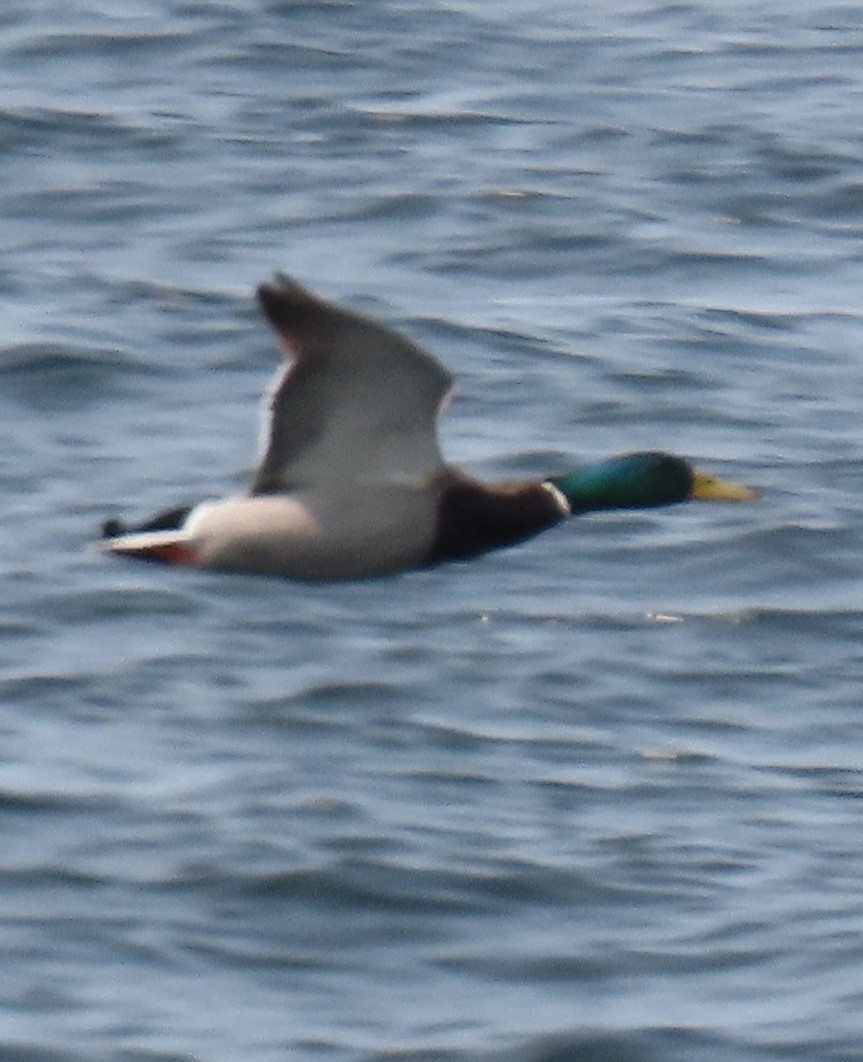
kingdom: Animalia
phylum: Chordata
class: Aves
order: Anseriformes
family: Anatidae
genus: Anas
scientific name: Anas platyrhynchos
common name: Mallard
